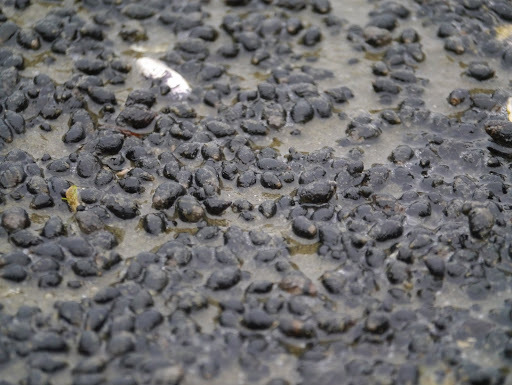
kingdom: Animalia
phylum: Mollusca
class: Gastropoda
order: Neogastropoda
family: Nassariidae
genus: Ilyanassa
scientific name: Ilyanassa obsoleta
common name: Eastern mudsnail
